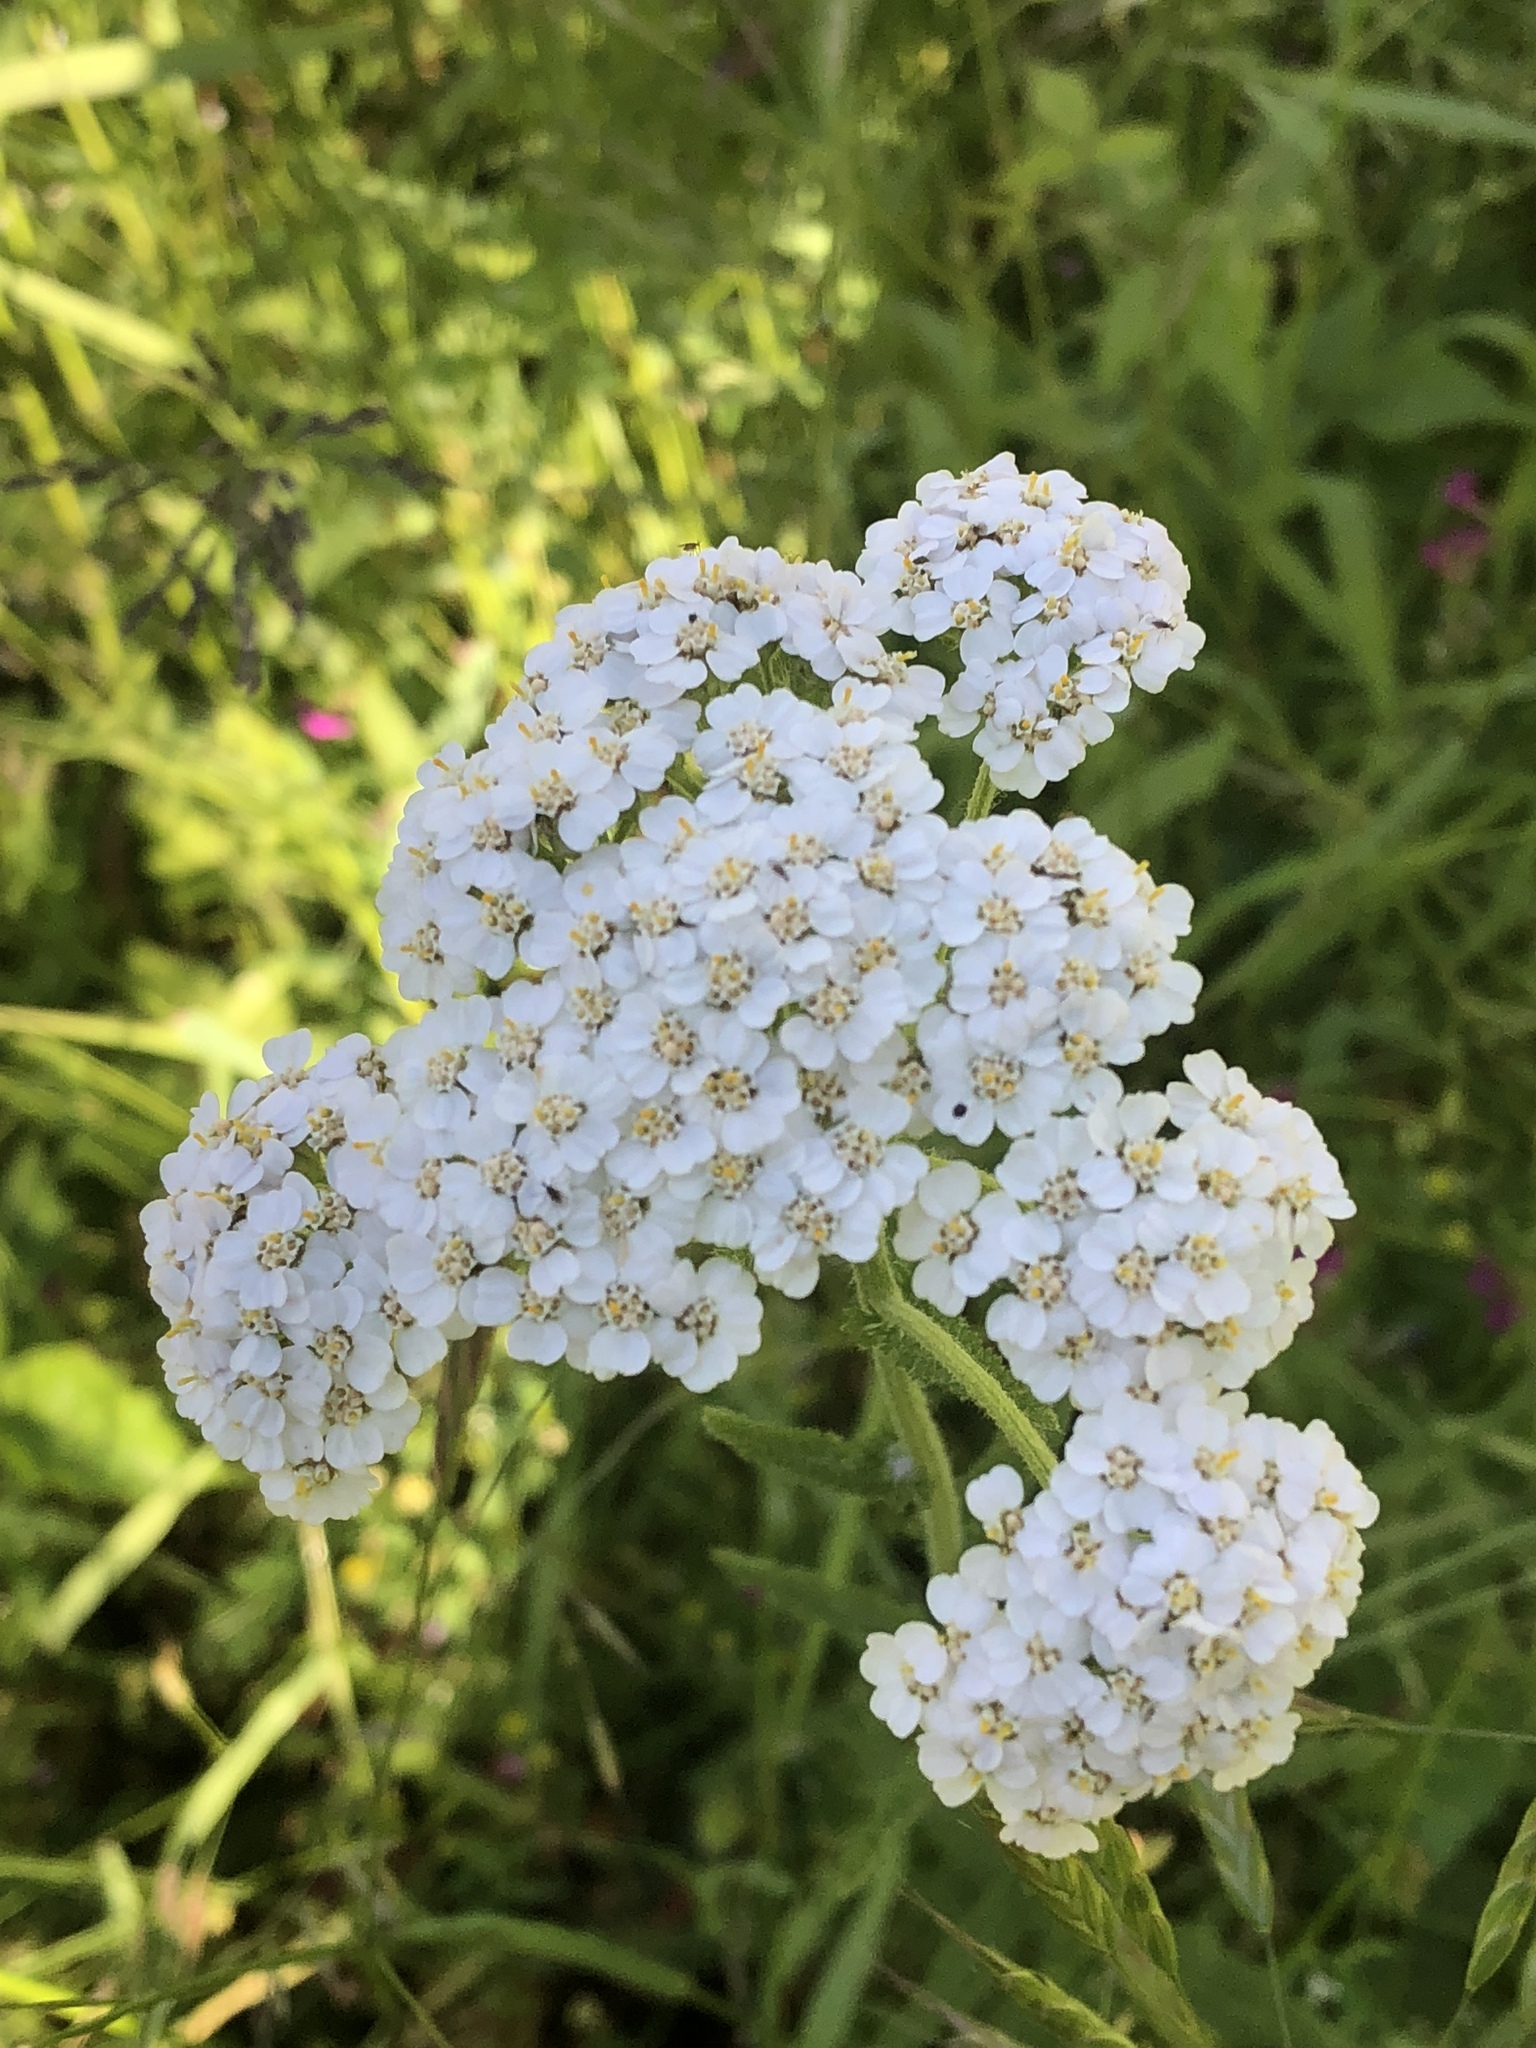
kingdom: Plantae
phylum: Tracheophyta
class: Magnoliopsida
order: Asterales
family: Asteraceae
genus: Achillea
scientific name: Achillea millefolium
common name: Yarrow
